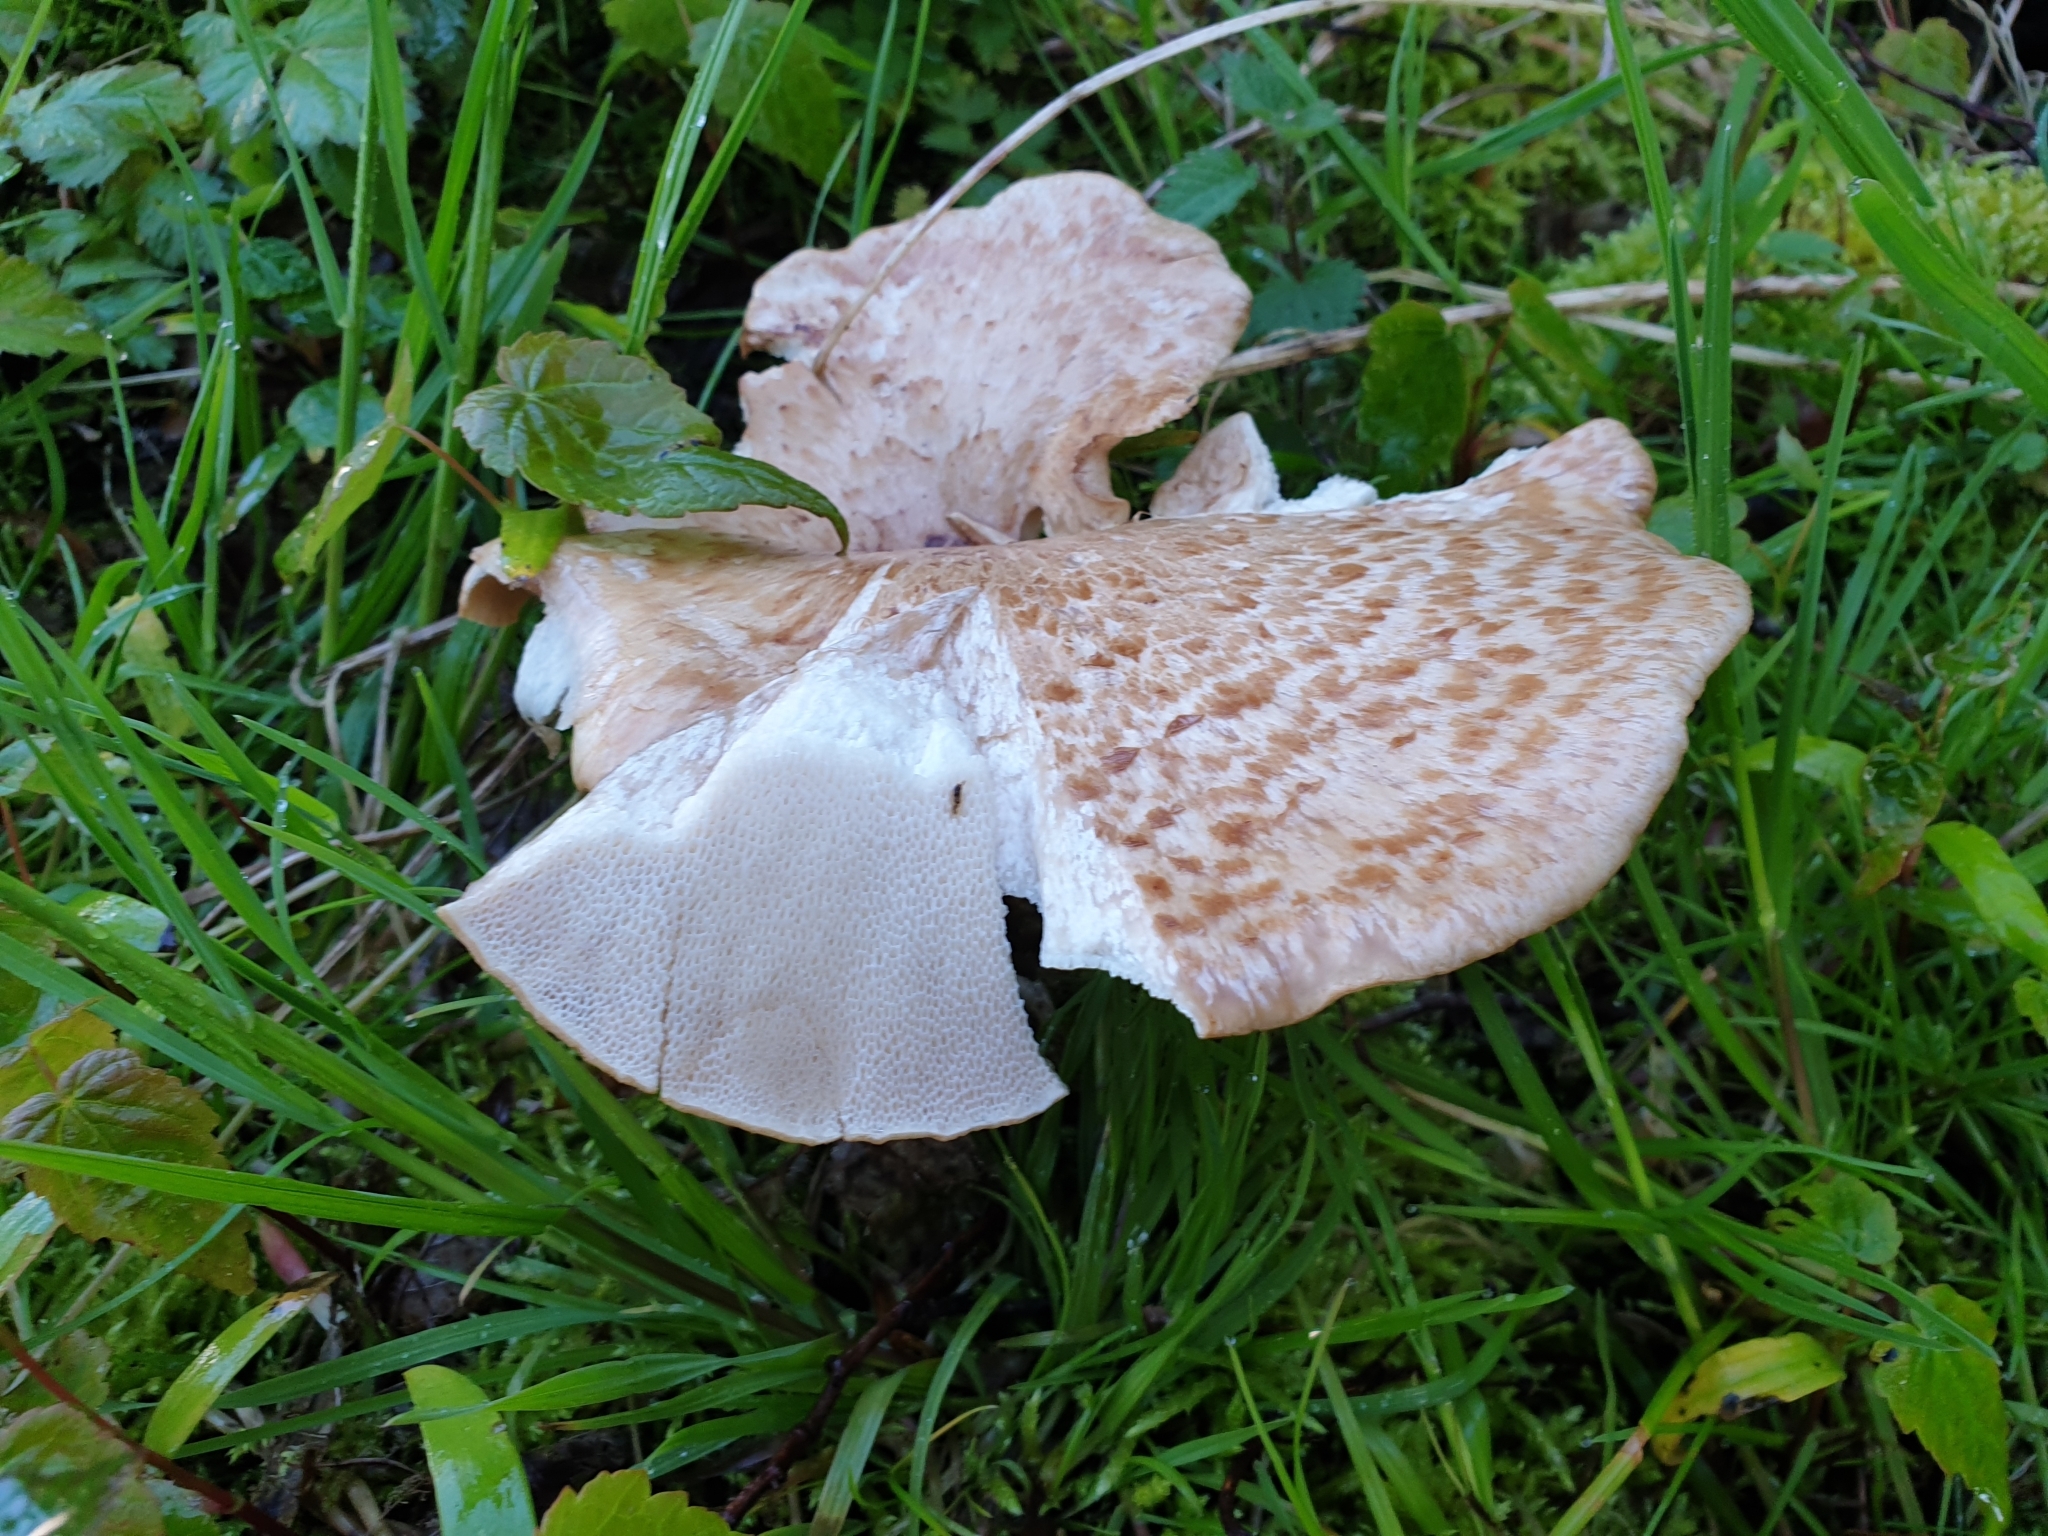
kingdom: Fungi
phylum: Basidiomycota
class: Agaricomycetes
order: Polyporales
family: Polyporaceae
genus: Cerioporus
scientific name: Cerioporus squamosus
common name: Dryad's saddle
